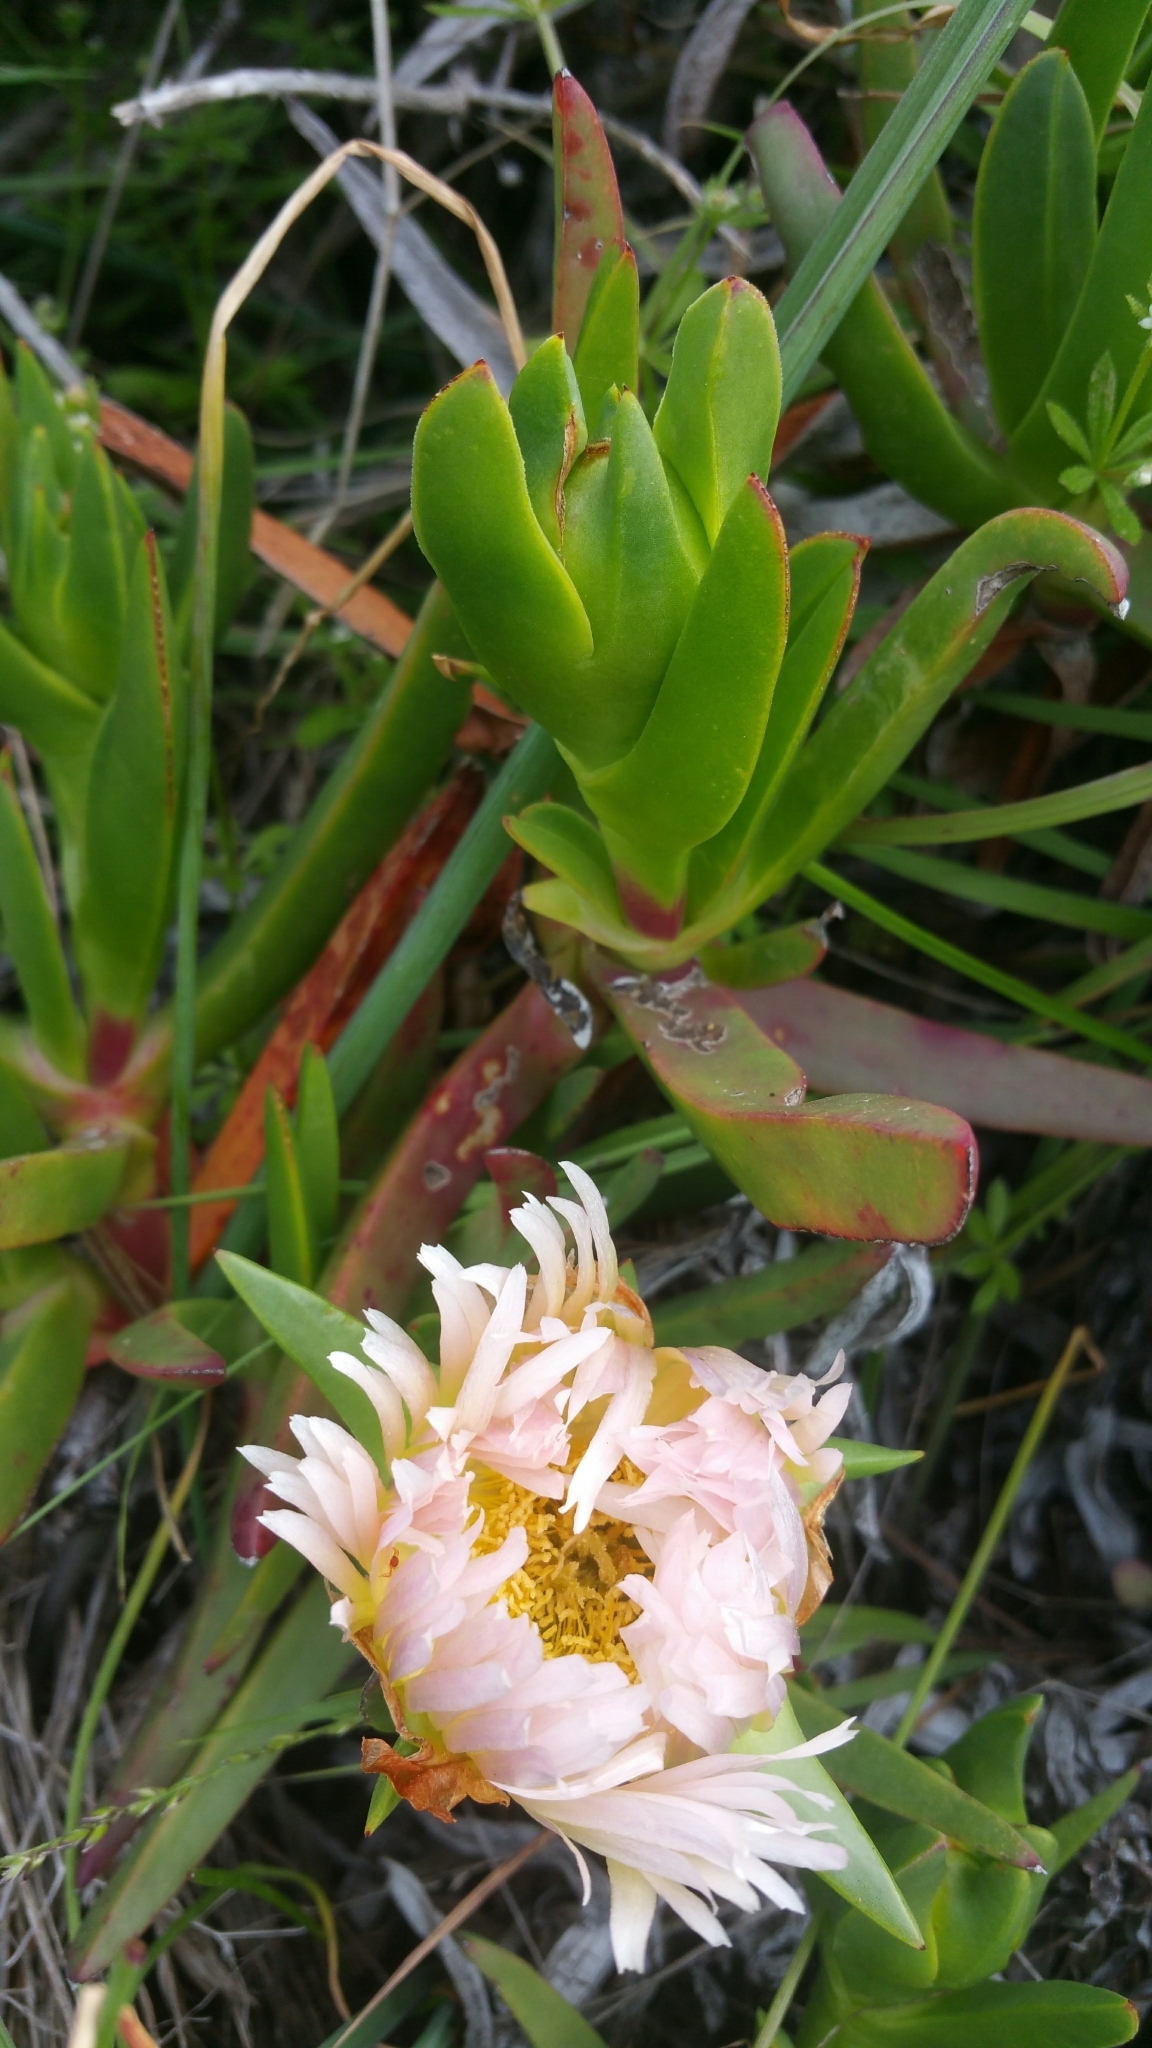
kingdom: Plantae
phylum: Tracheophyta
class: Magnoliopsida
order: Caryophyllales
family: Aizoaceae
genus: Carpobrotus
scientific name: Carpobrotus edulis
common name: Hottentot-fig
